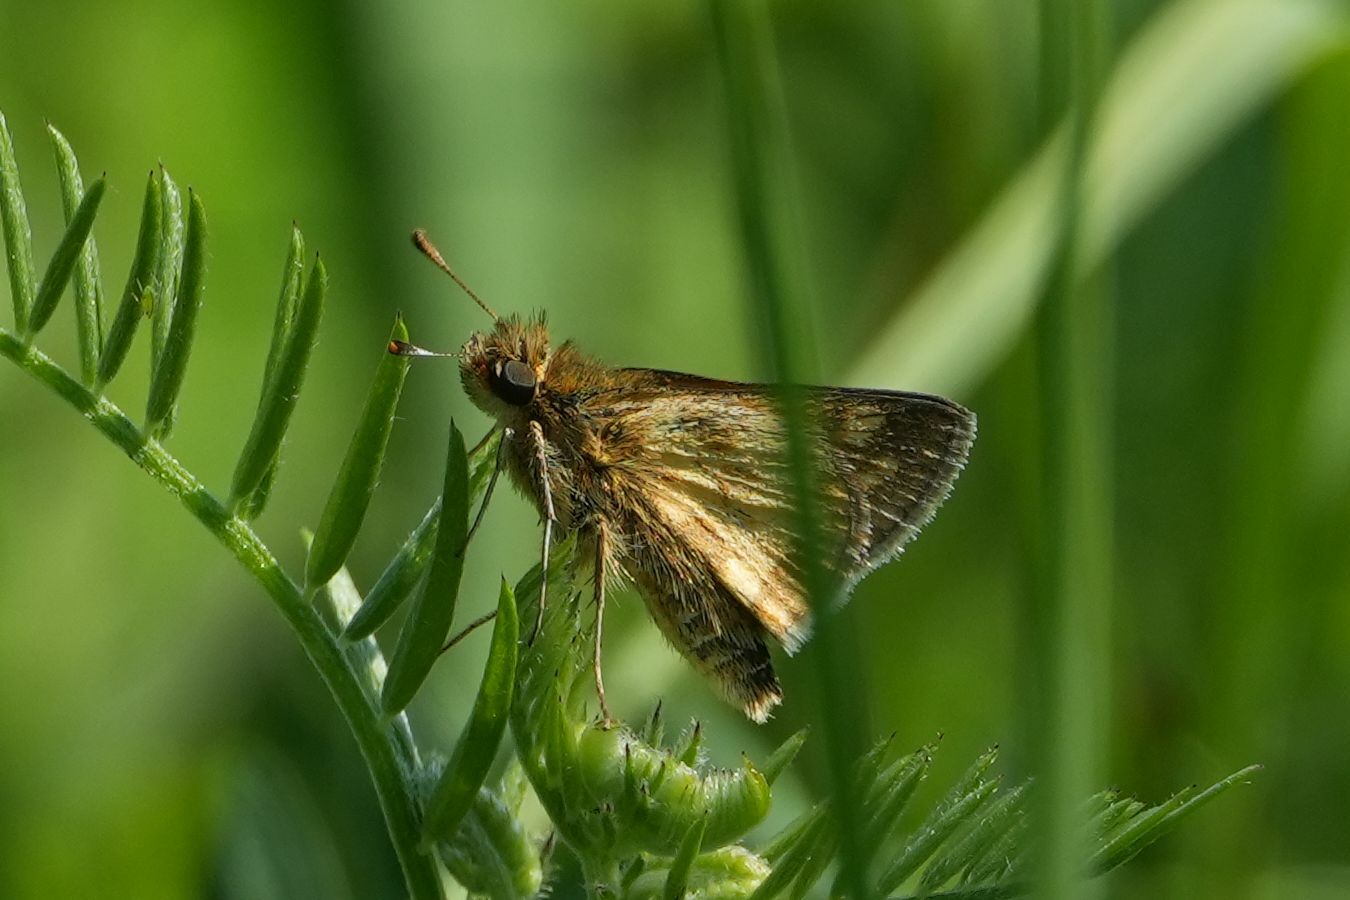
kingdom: Animalia
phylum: Arthropoda
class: Insecta
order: Lepidoptera
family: Hesperiidae
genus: Lon
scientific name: Lon hobomok
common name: Hobomok skipper
